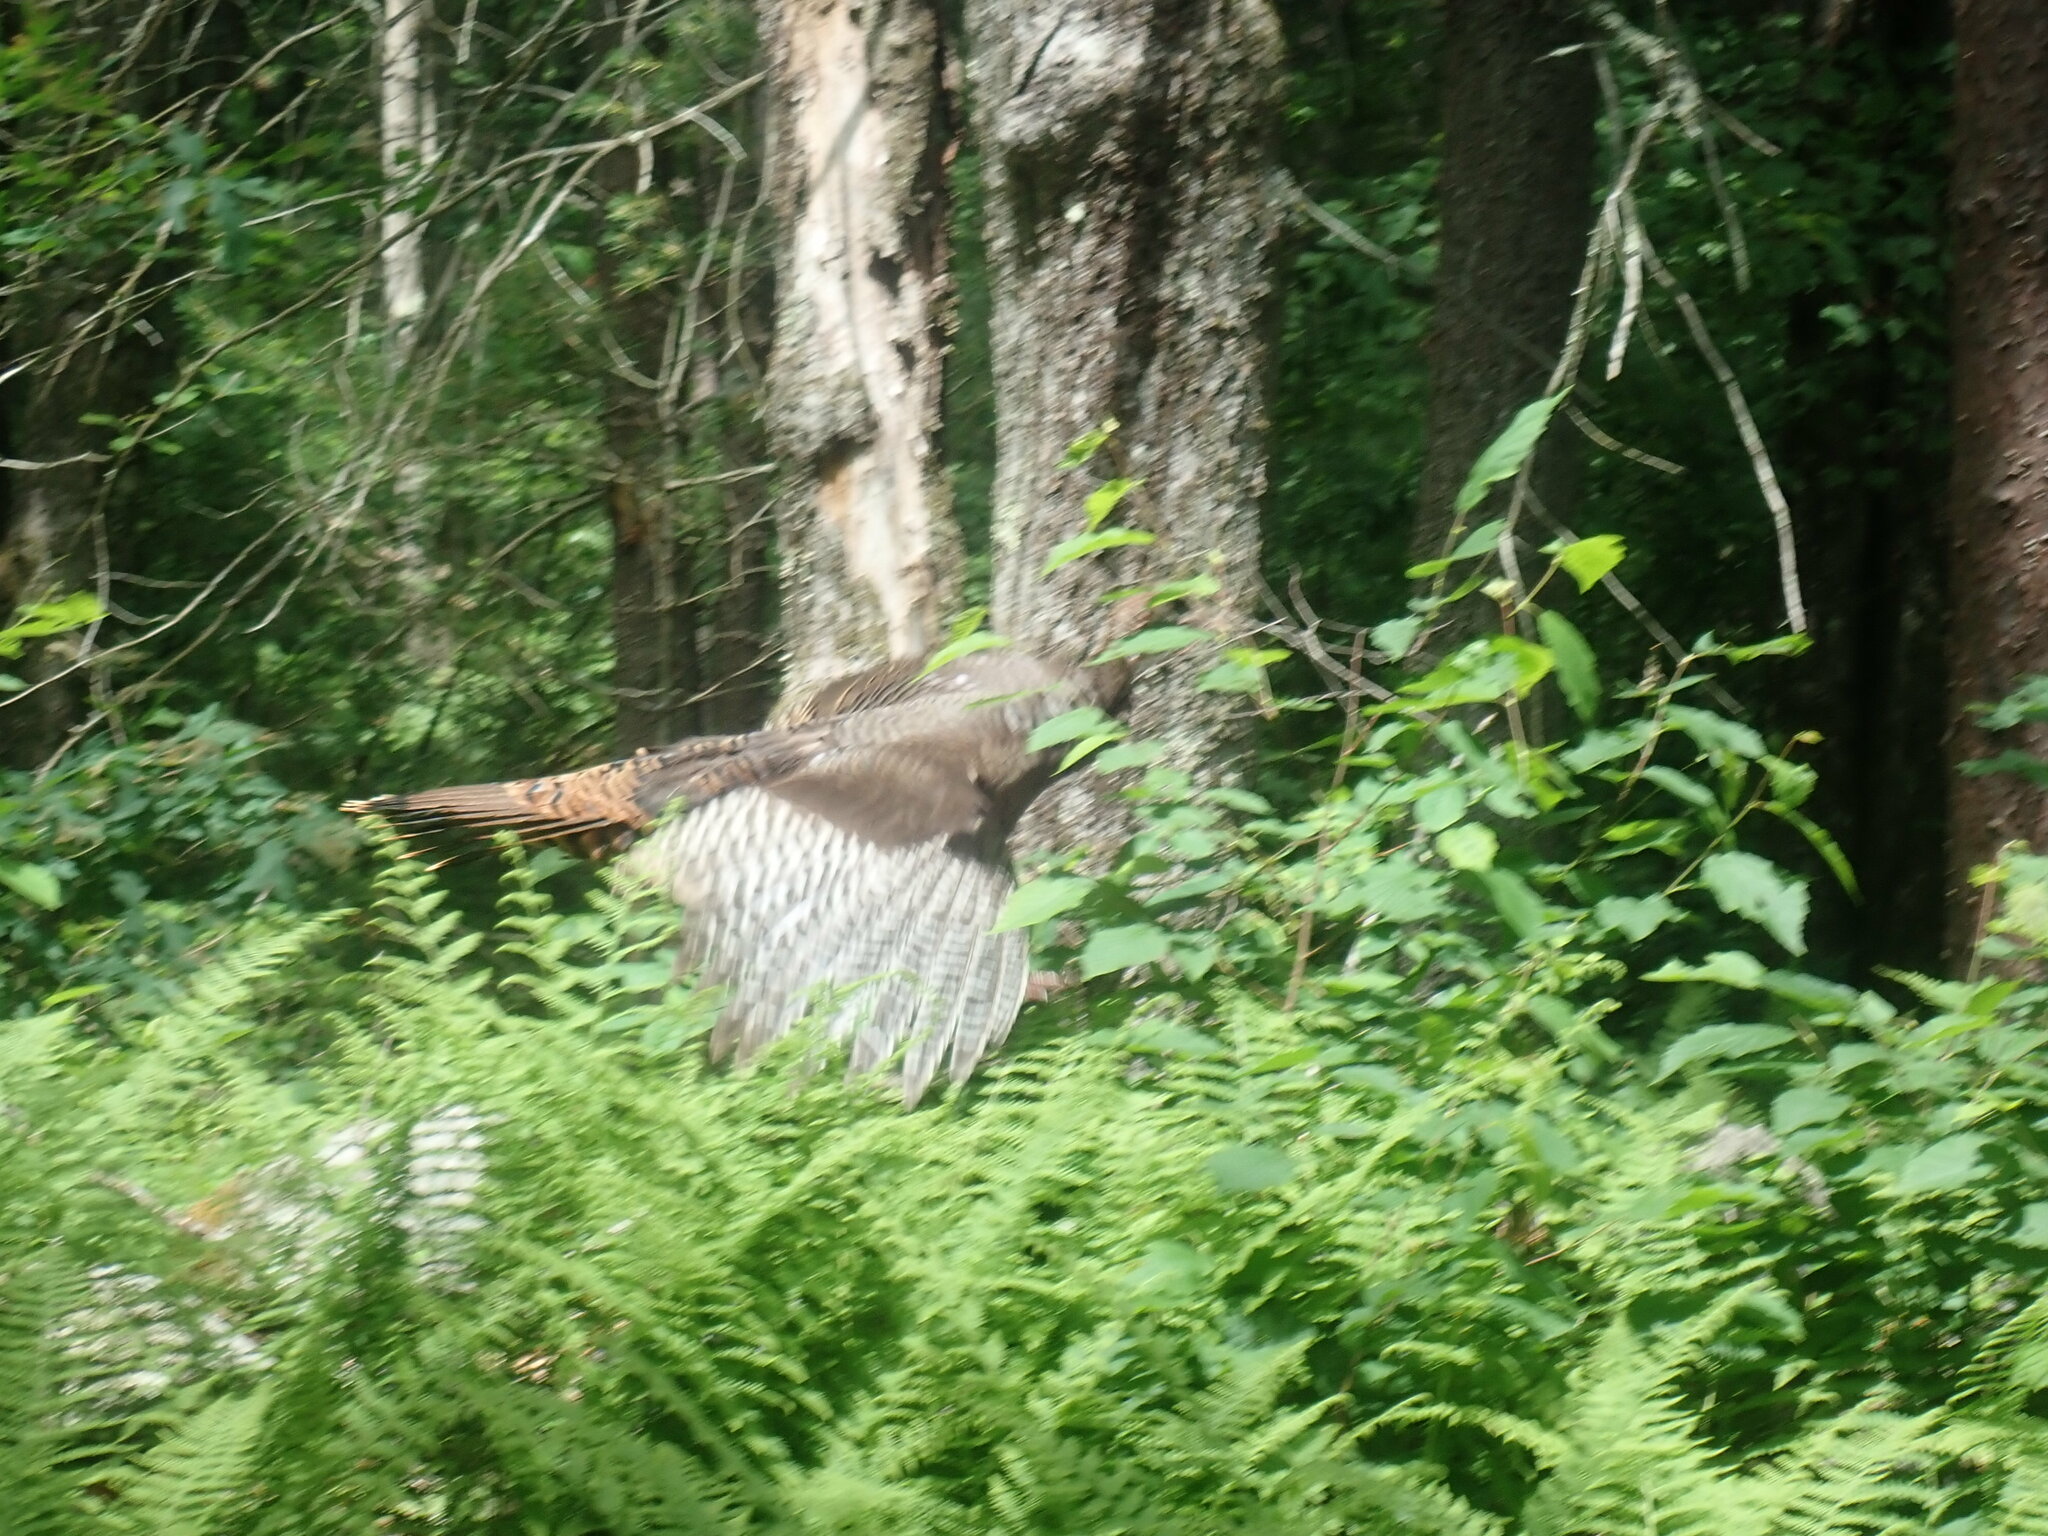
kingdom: Animalia
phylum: Chordata
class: Aves
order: Galliformes
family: Phasianidae
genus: Meleagris
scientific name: Meleagris gallopavo
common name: Wild turkey
